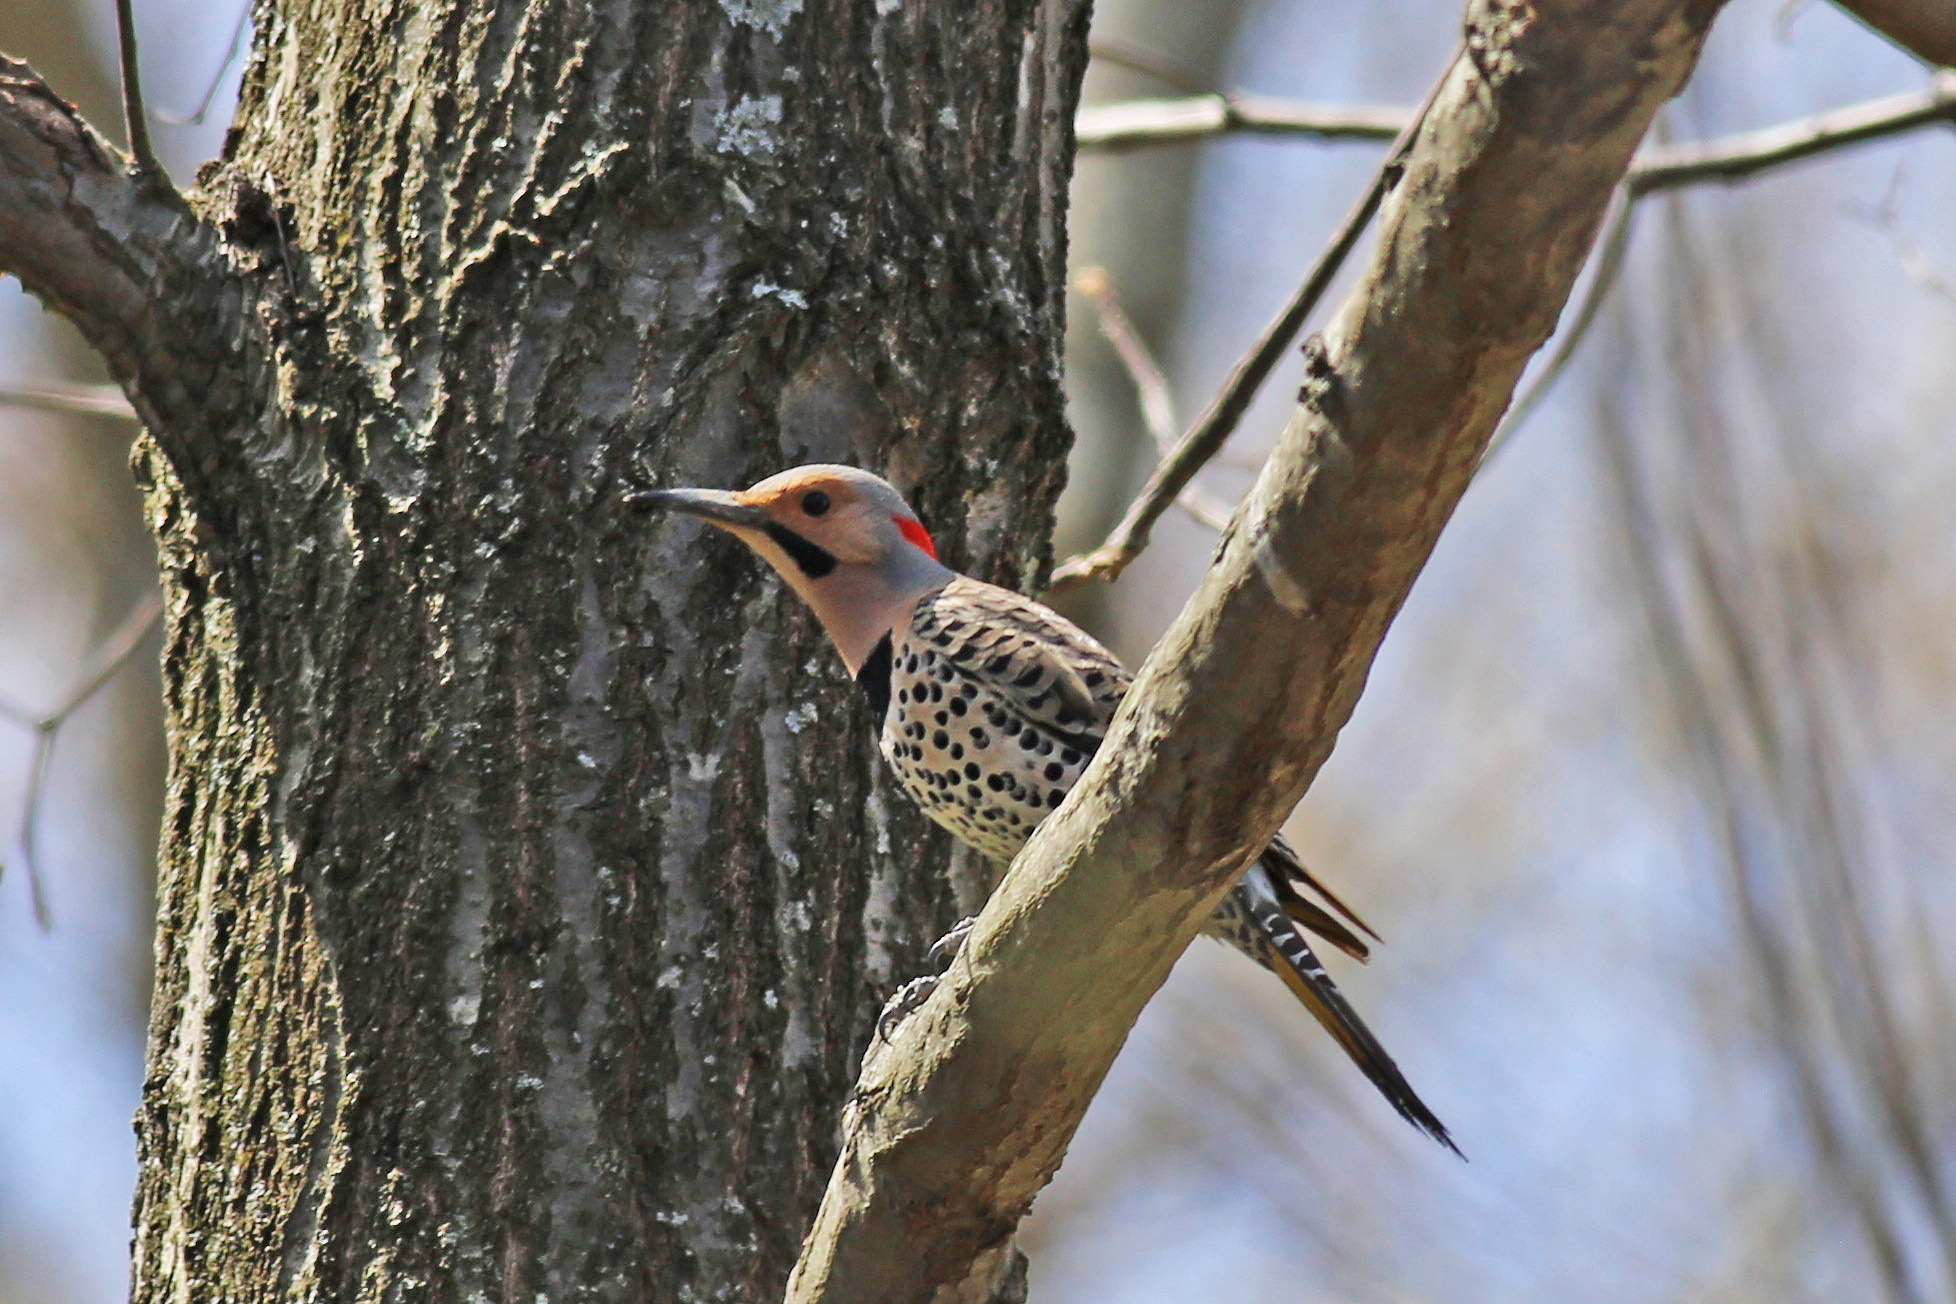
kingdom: Animalia
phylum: Chordata
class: Aves
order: Piciformes
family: Picidae
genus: Colaptes
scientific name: Colaptes auratus
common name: Northern flicker
